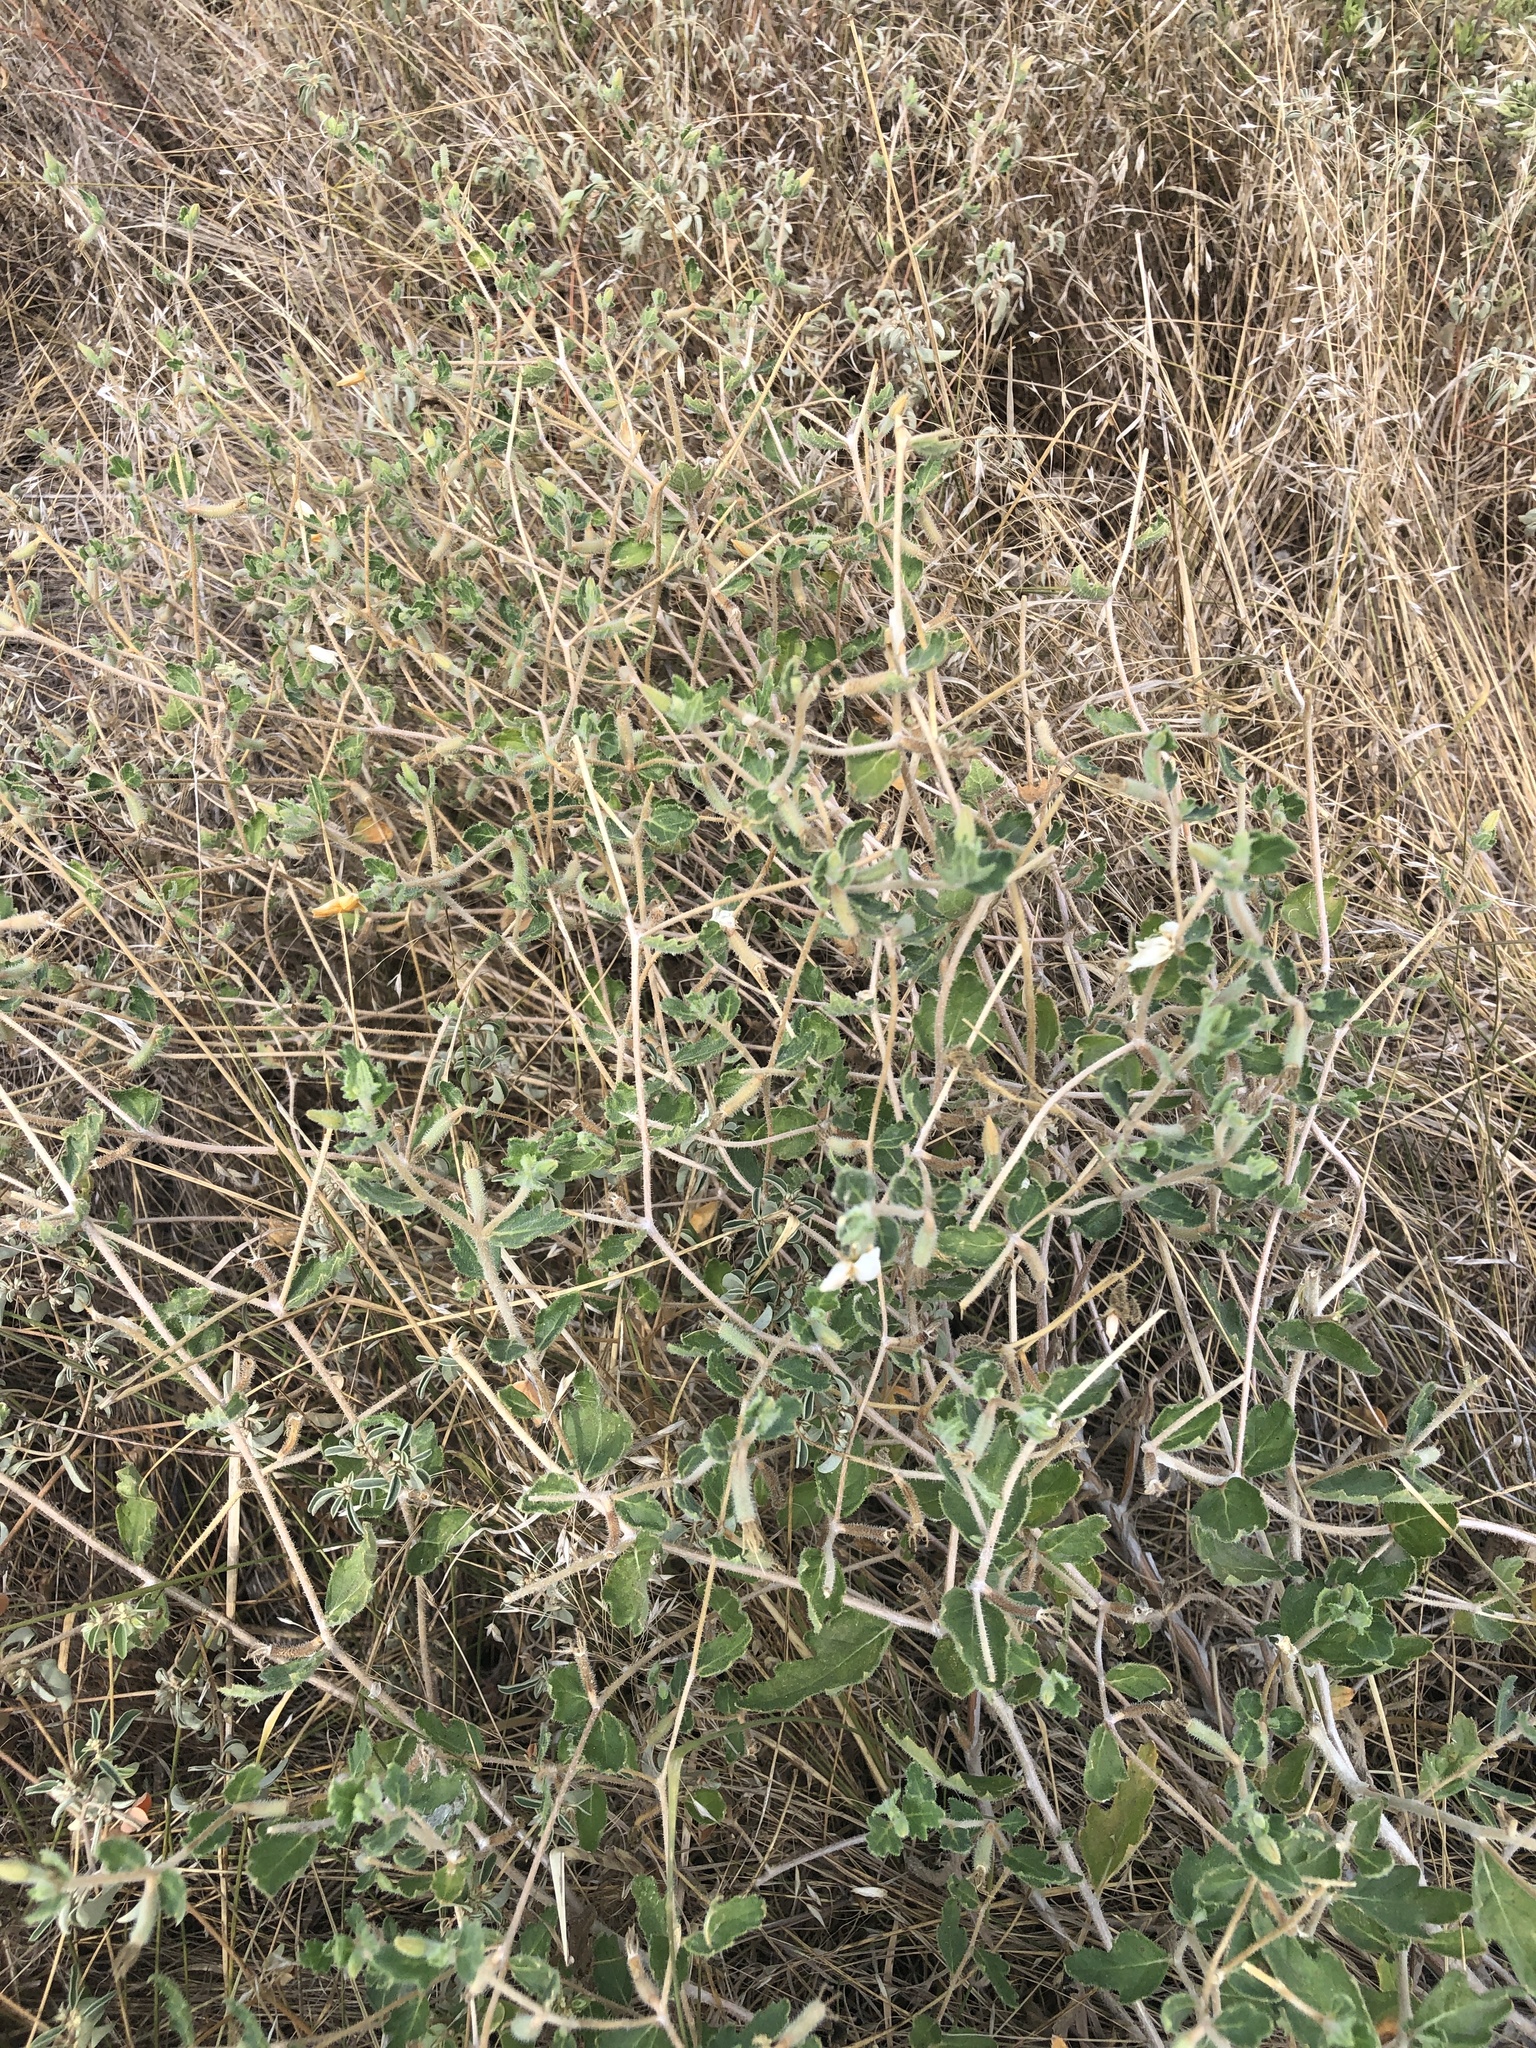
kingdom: Plantae
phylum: Tracheophyta
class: Magnoliopsida
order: Cornales
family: Loasaceae
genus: Mentzelia
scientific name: Mentzelia oligosperma
